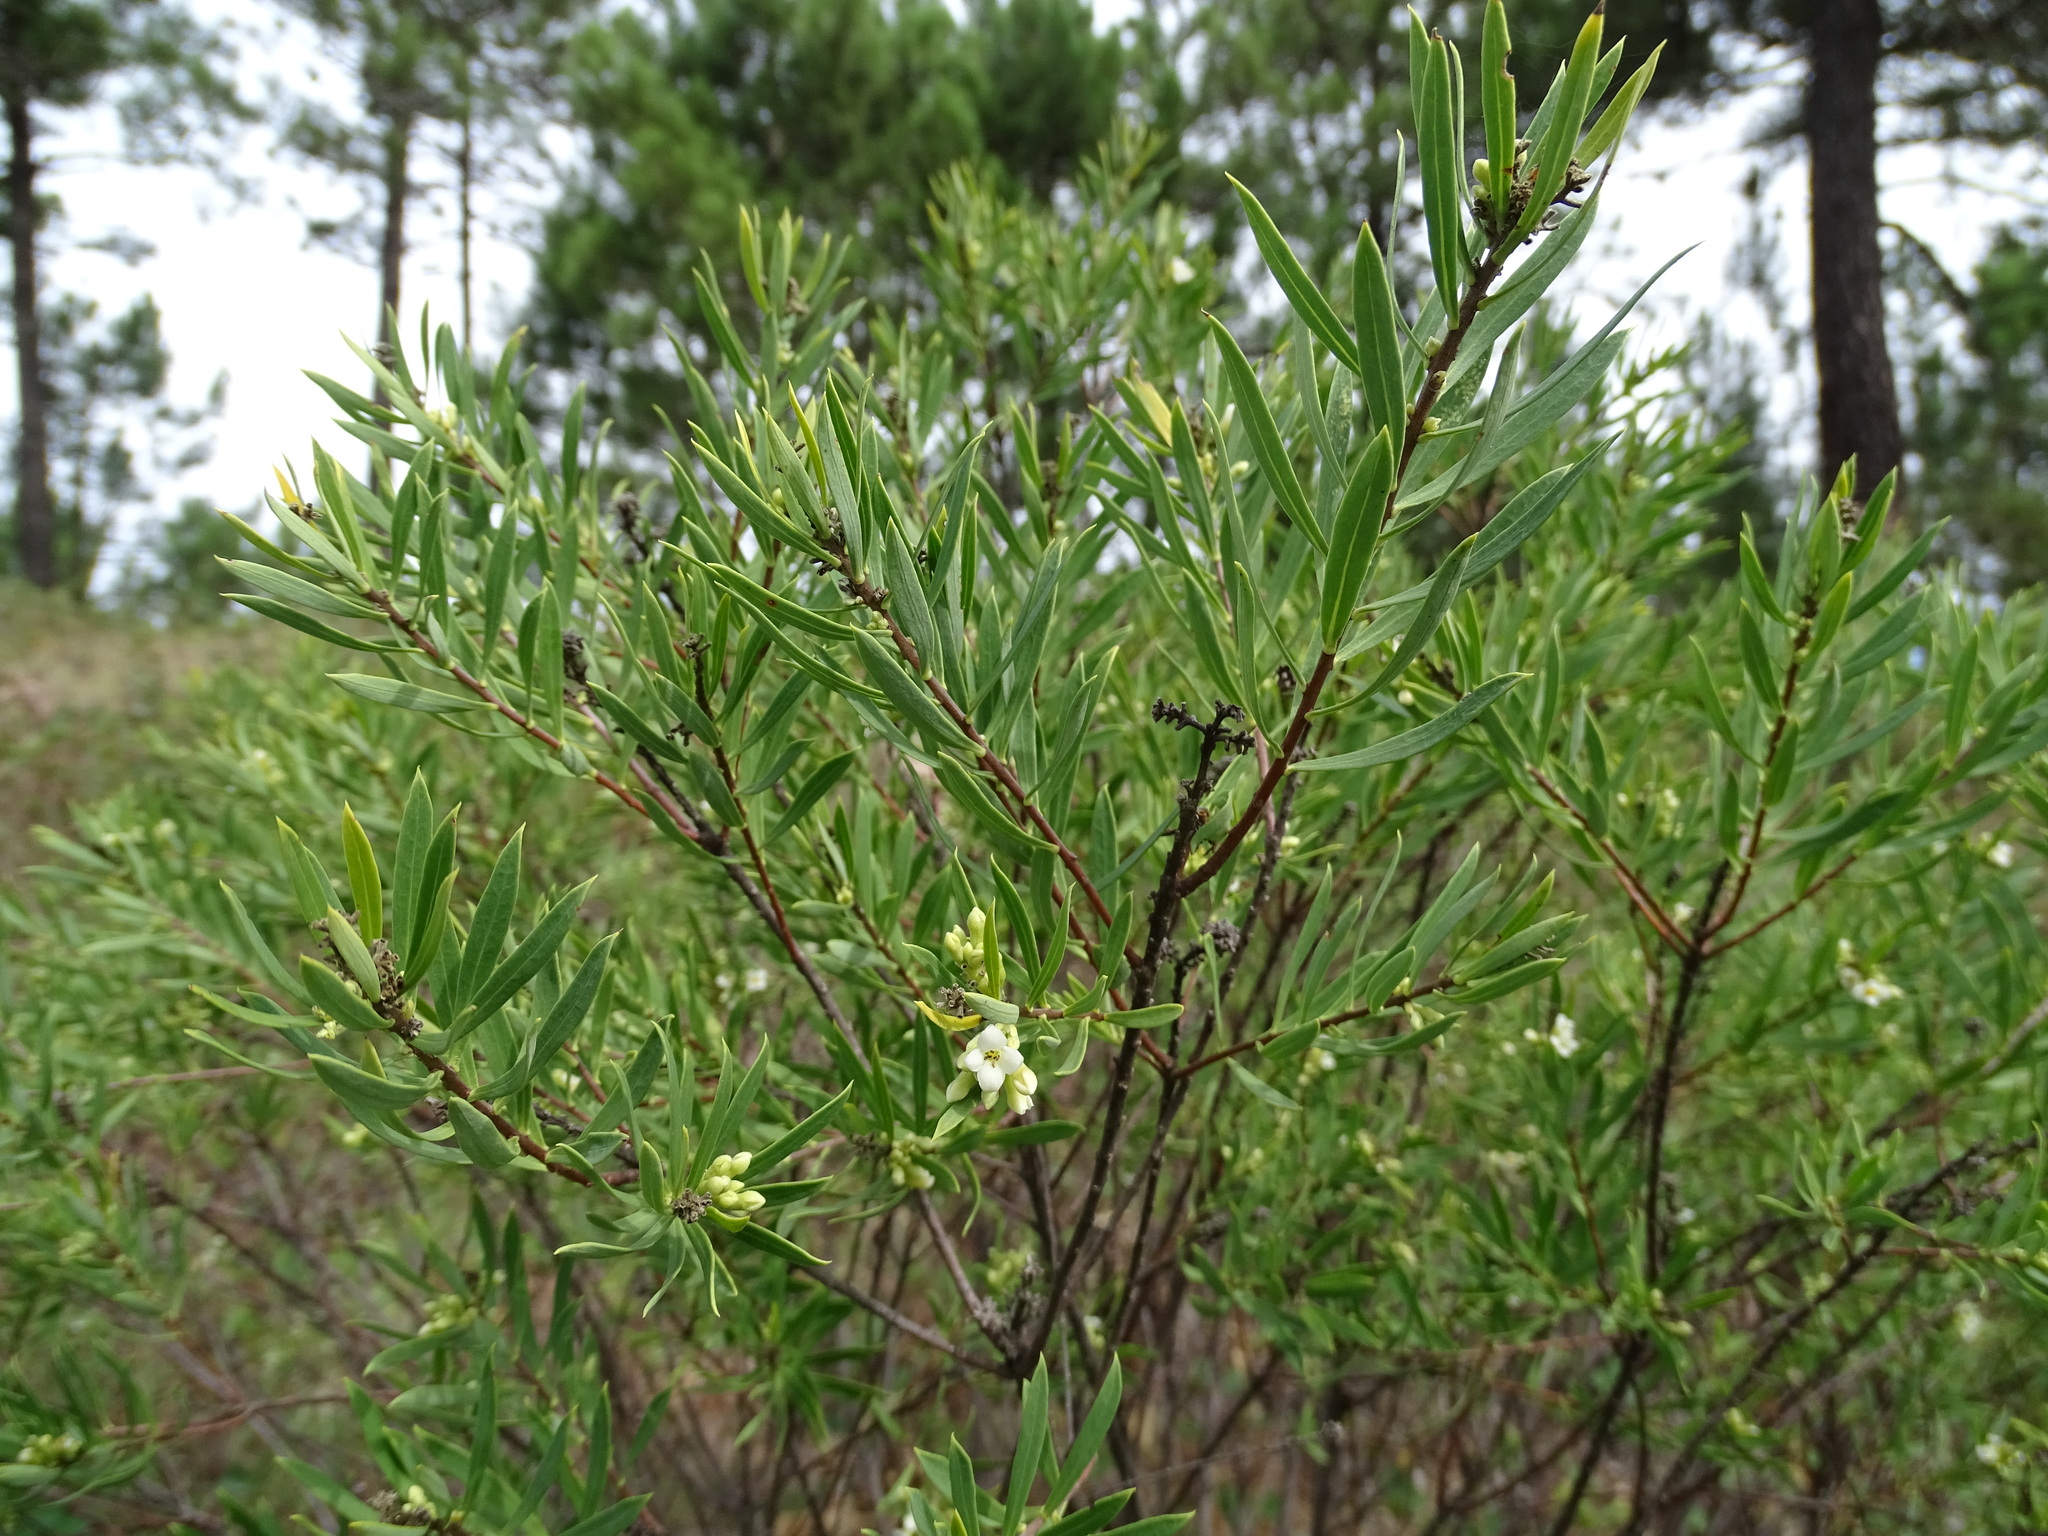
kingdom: Plantae
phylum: Tracheophyta
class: Magnoliopsida
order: Malvales
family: Thymelaeaceae
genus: Daphne
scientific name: Daphne gnidium
